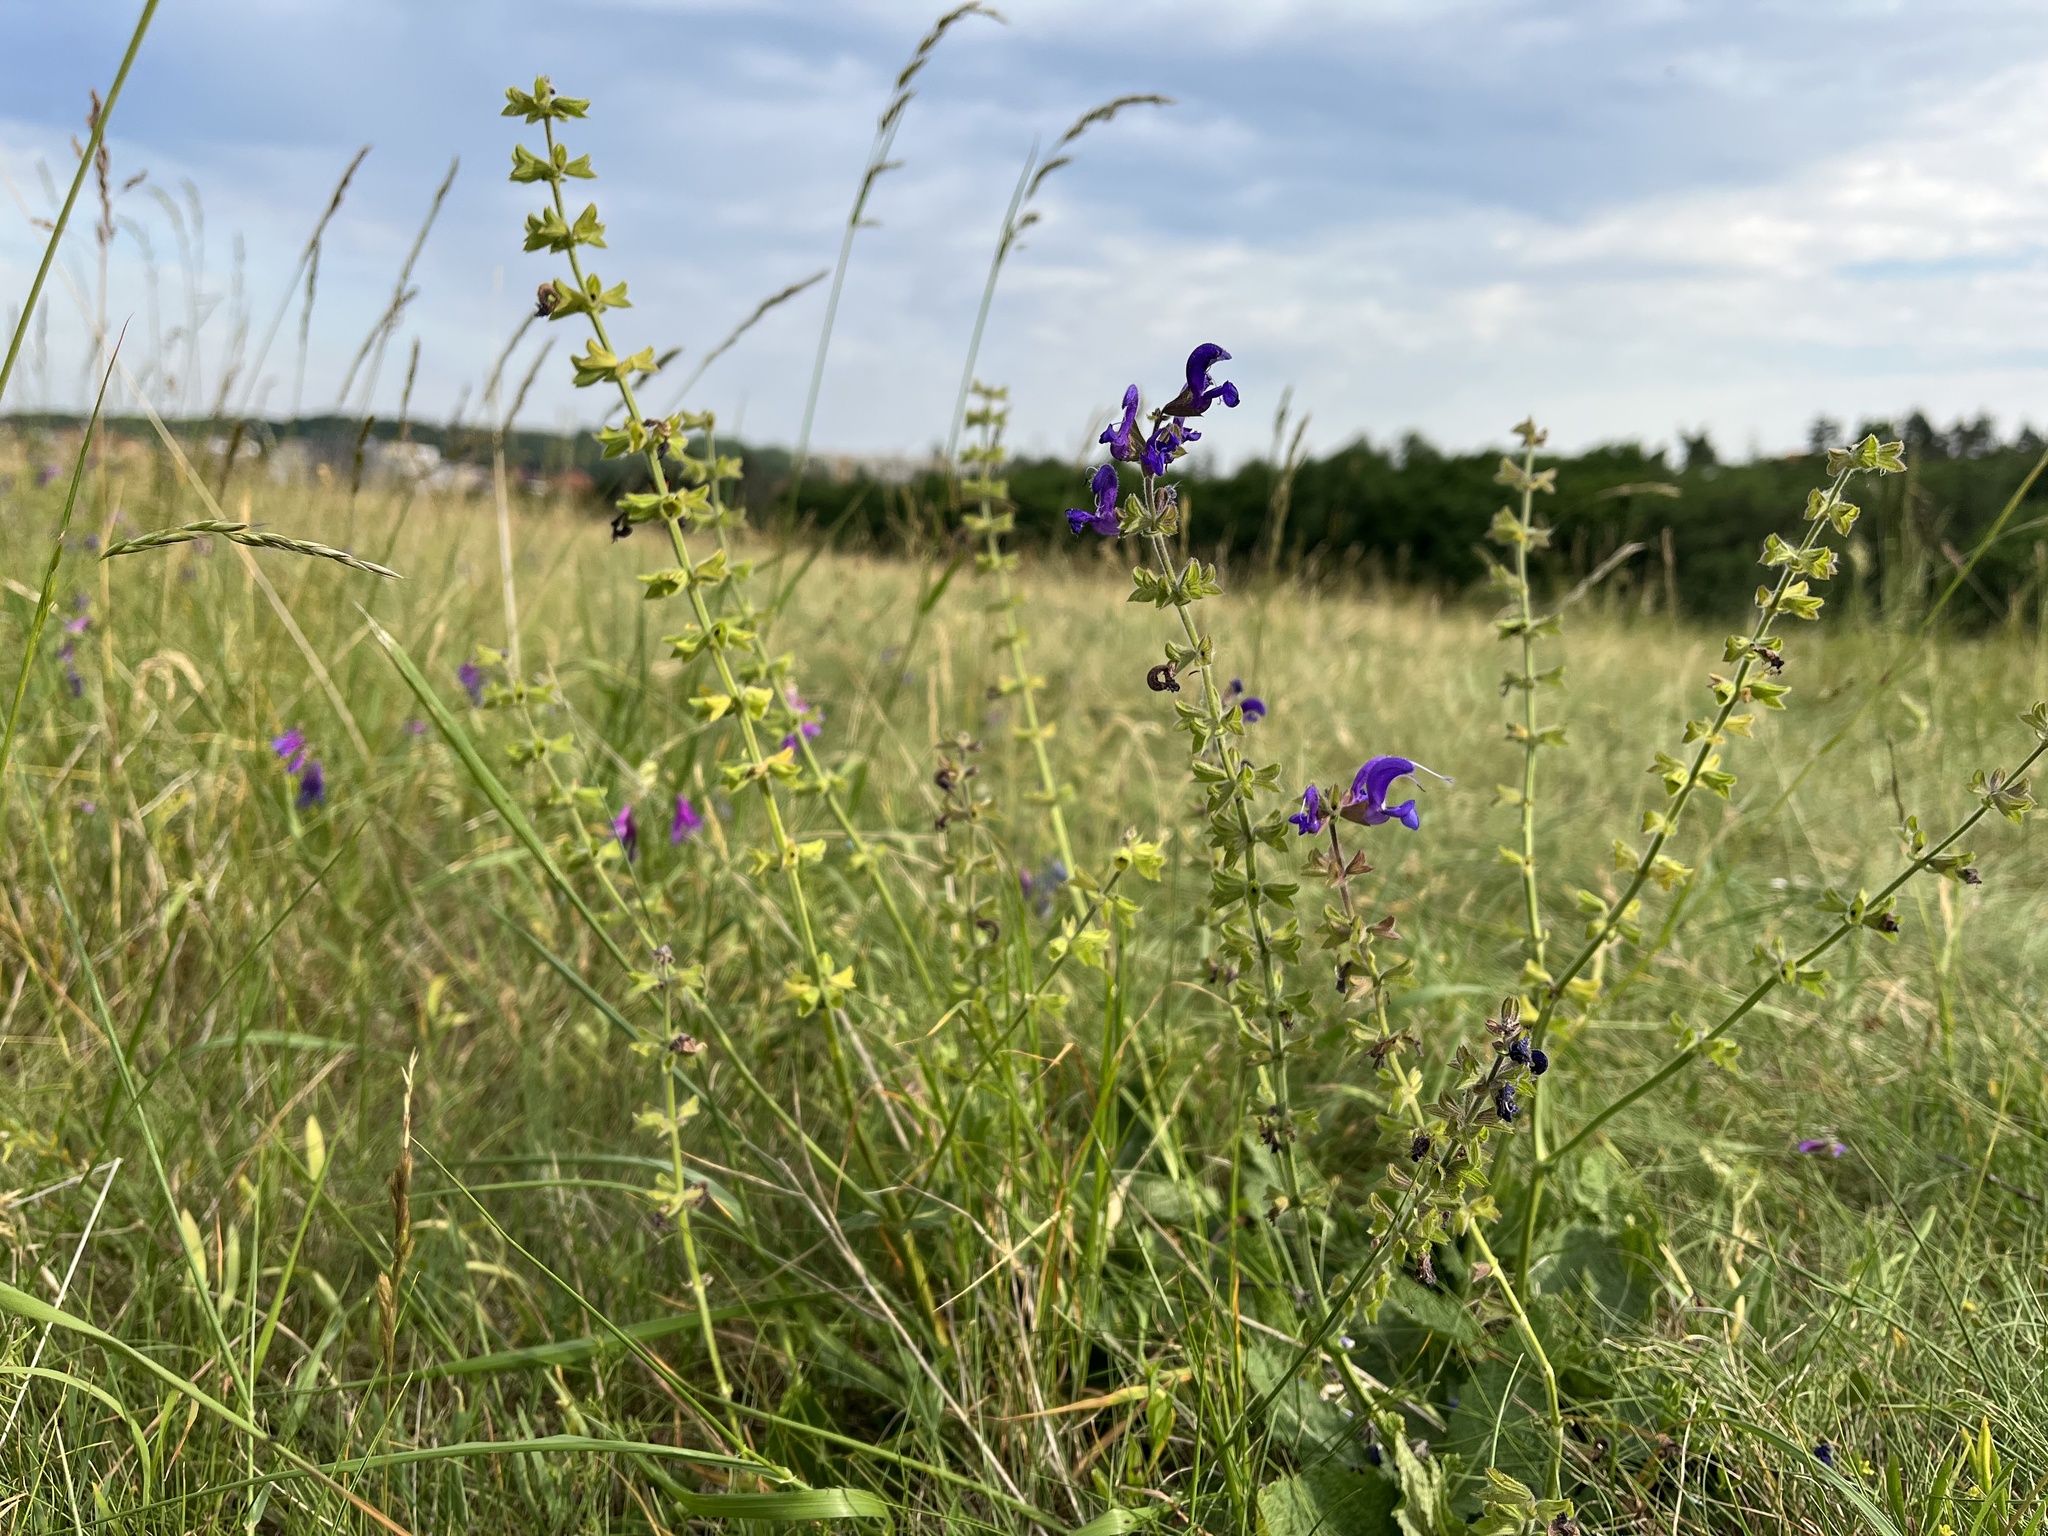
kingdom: Plantae
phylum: Tracheophyta
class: Magnoliopsida
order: Lamiales
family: Lamiaceae
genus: Salvia
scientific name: Salvia pratensis
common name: Meadow sage
